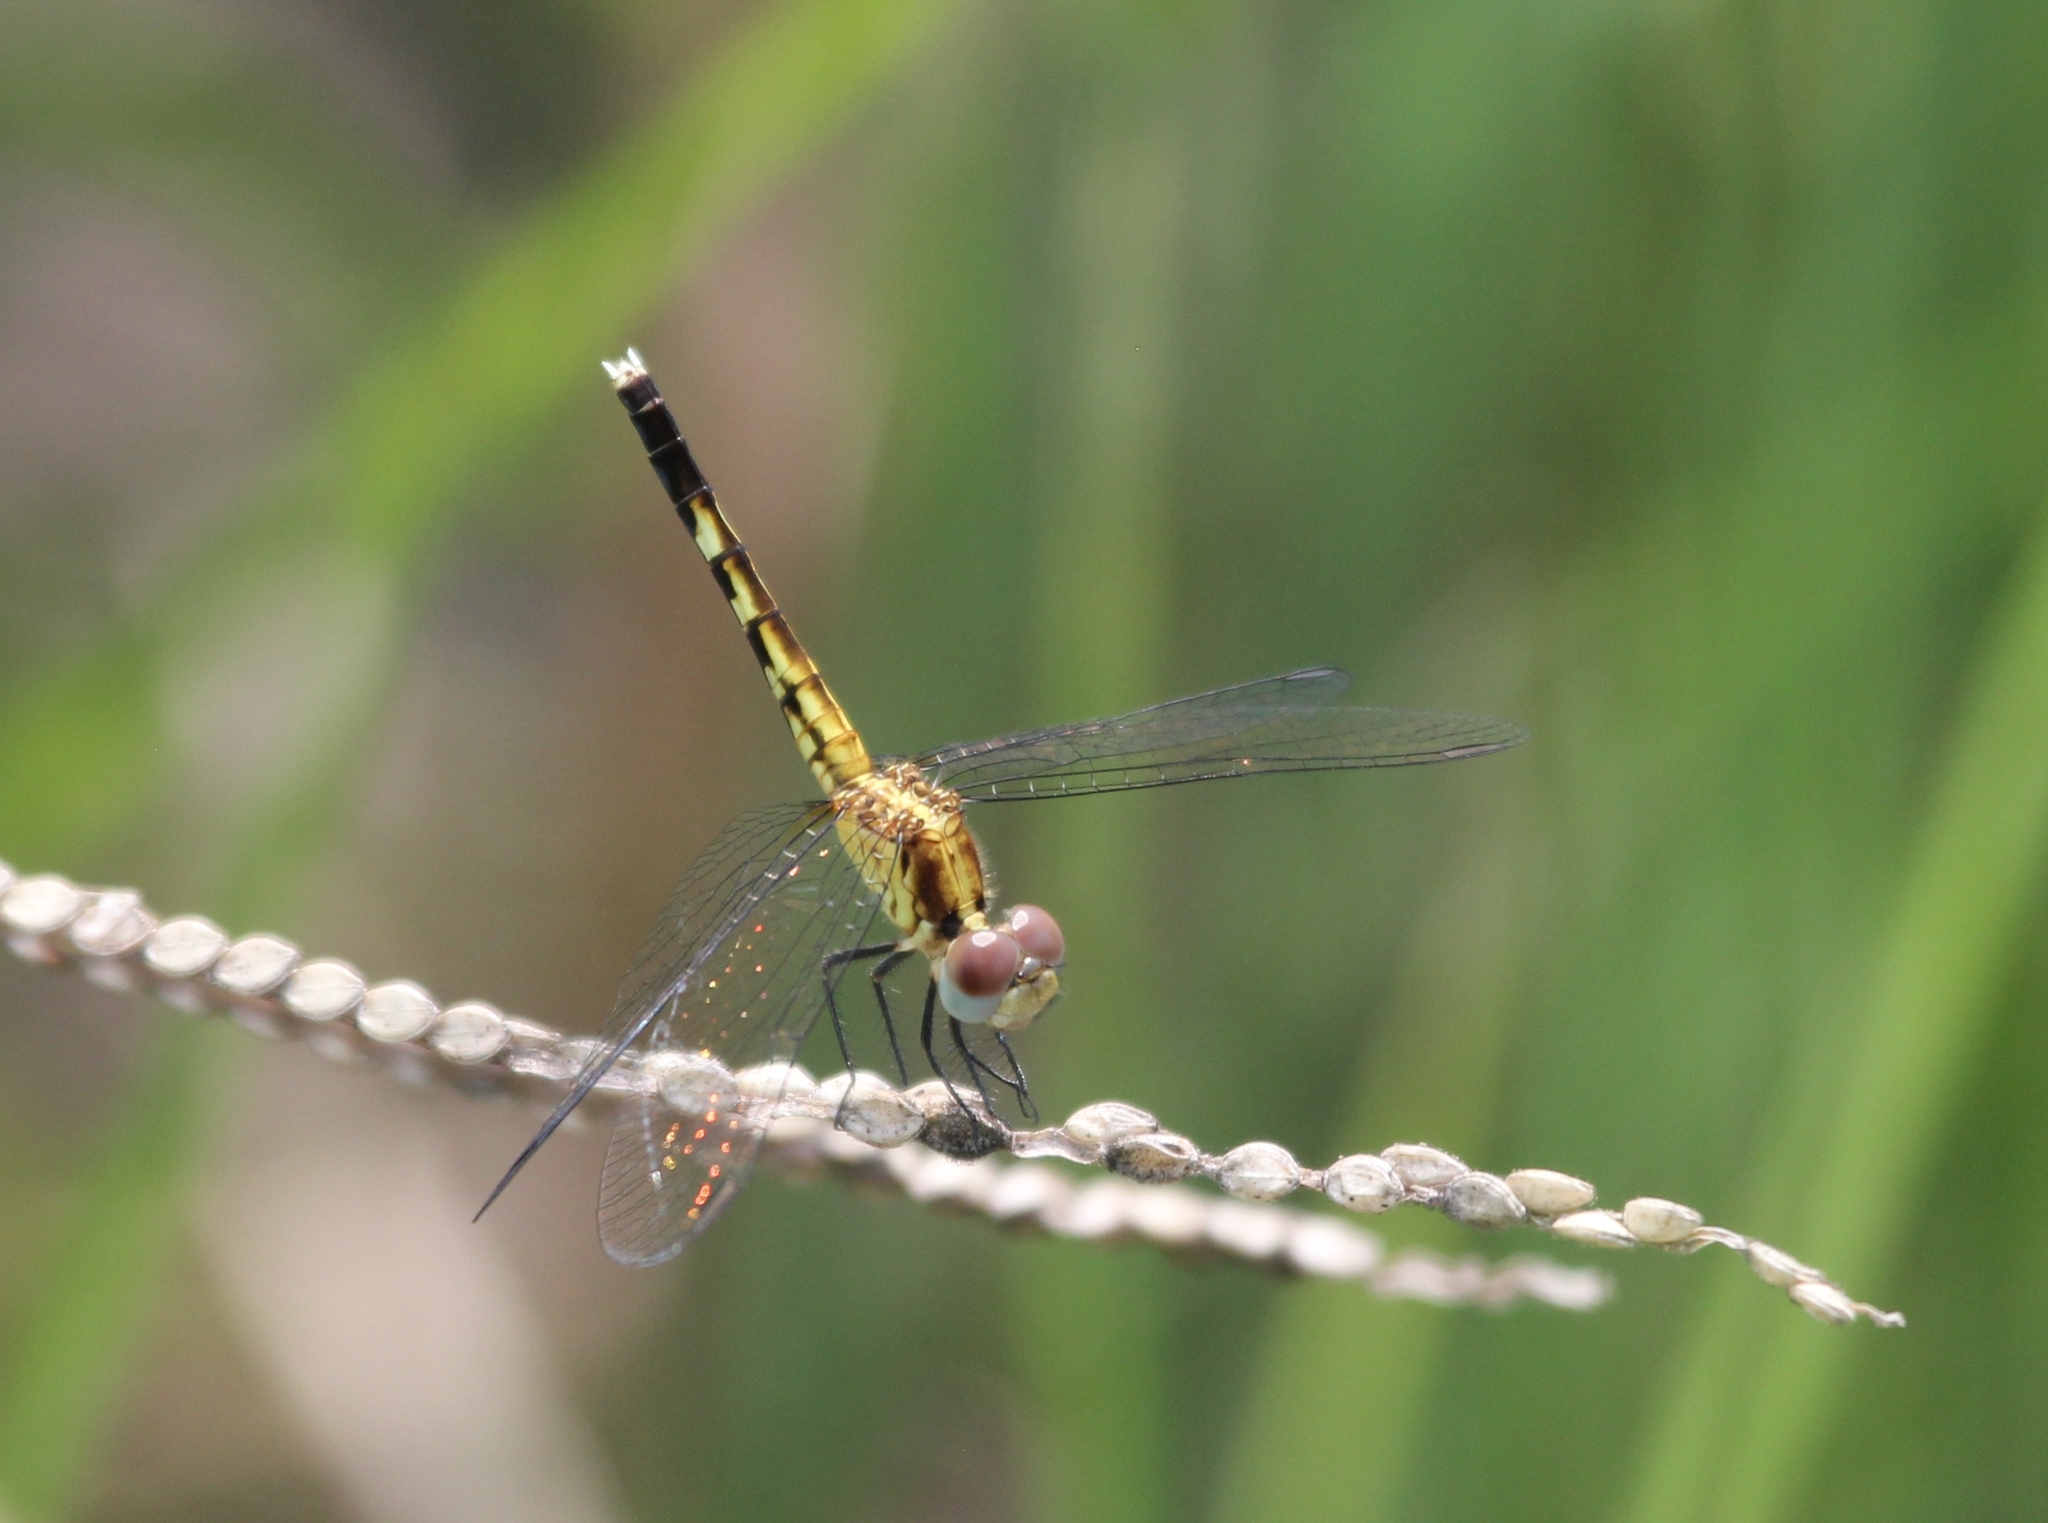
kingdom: Animalia
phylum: Arthropoda
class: Insecta
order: Odonata
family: Libellulidae
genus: Erythrodiplax
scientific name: Erythrodiplax minuscula
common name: Little blue dragonlet
